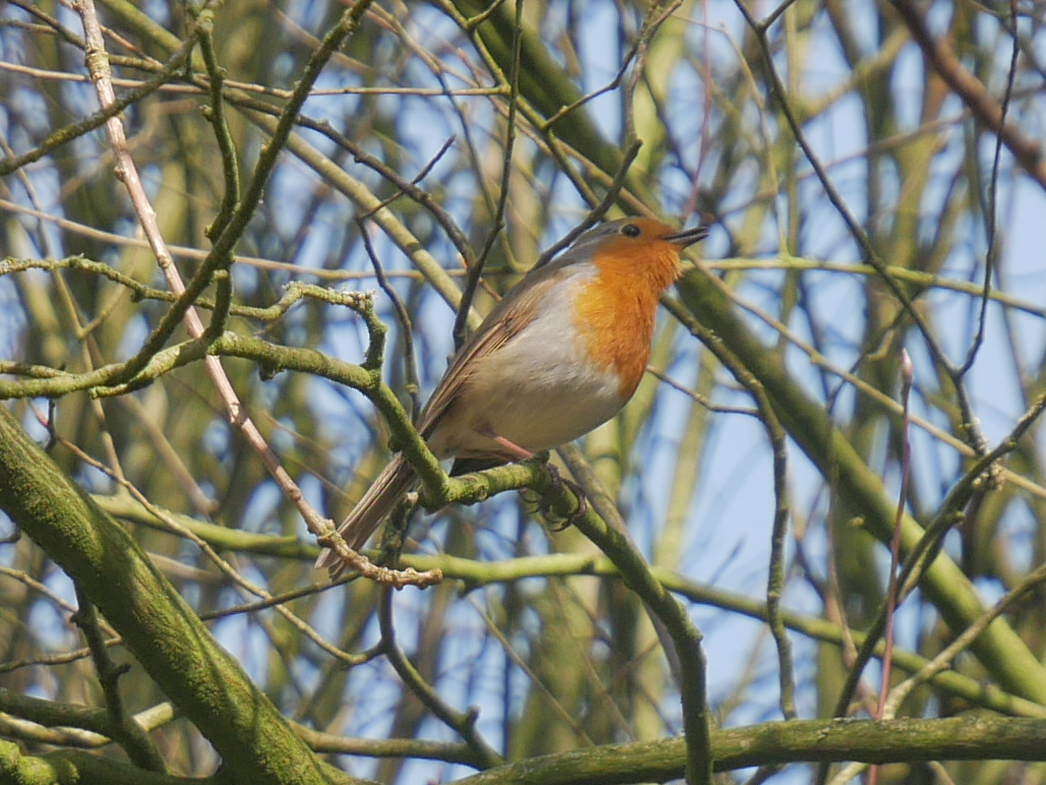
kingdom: Animalia
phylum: Chordata
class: Aves
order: Passeriformes
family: Muscicapidae
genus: Erithacus
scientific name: Erithacus rubecula
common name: European robin
